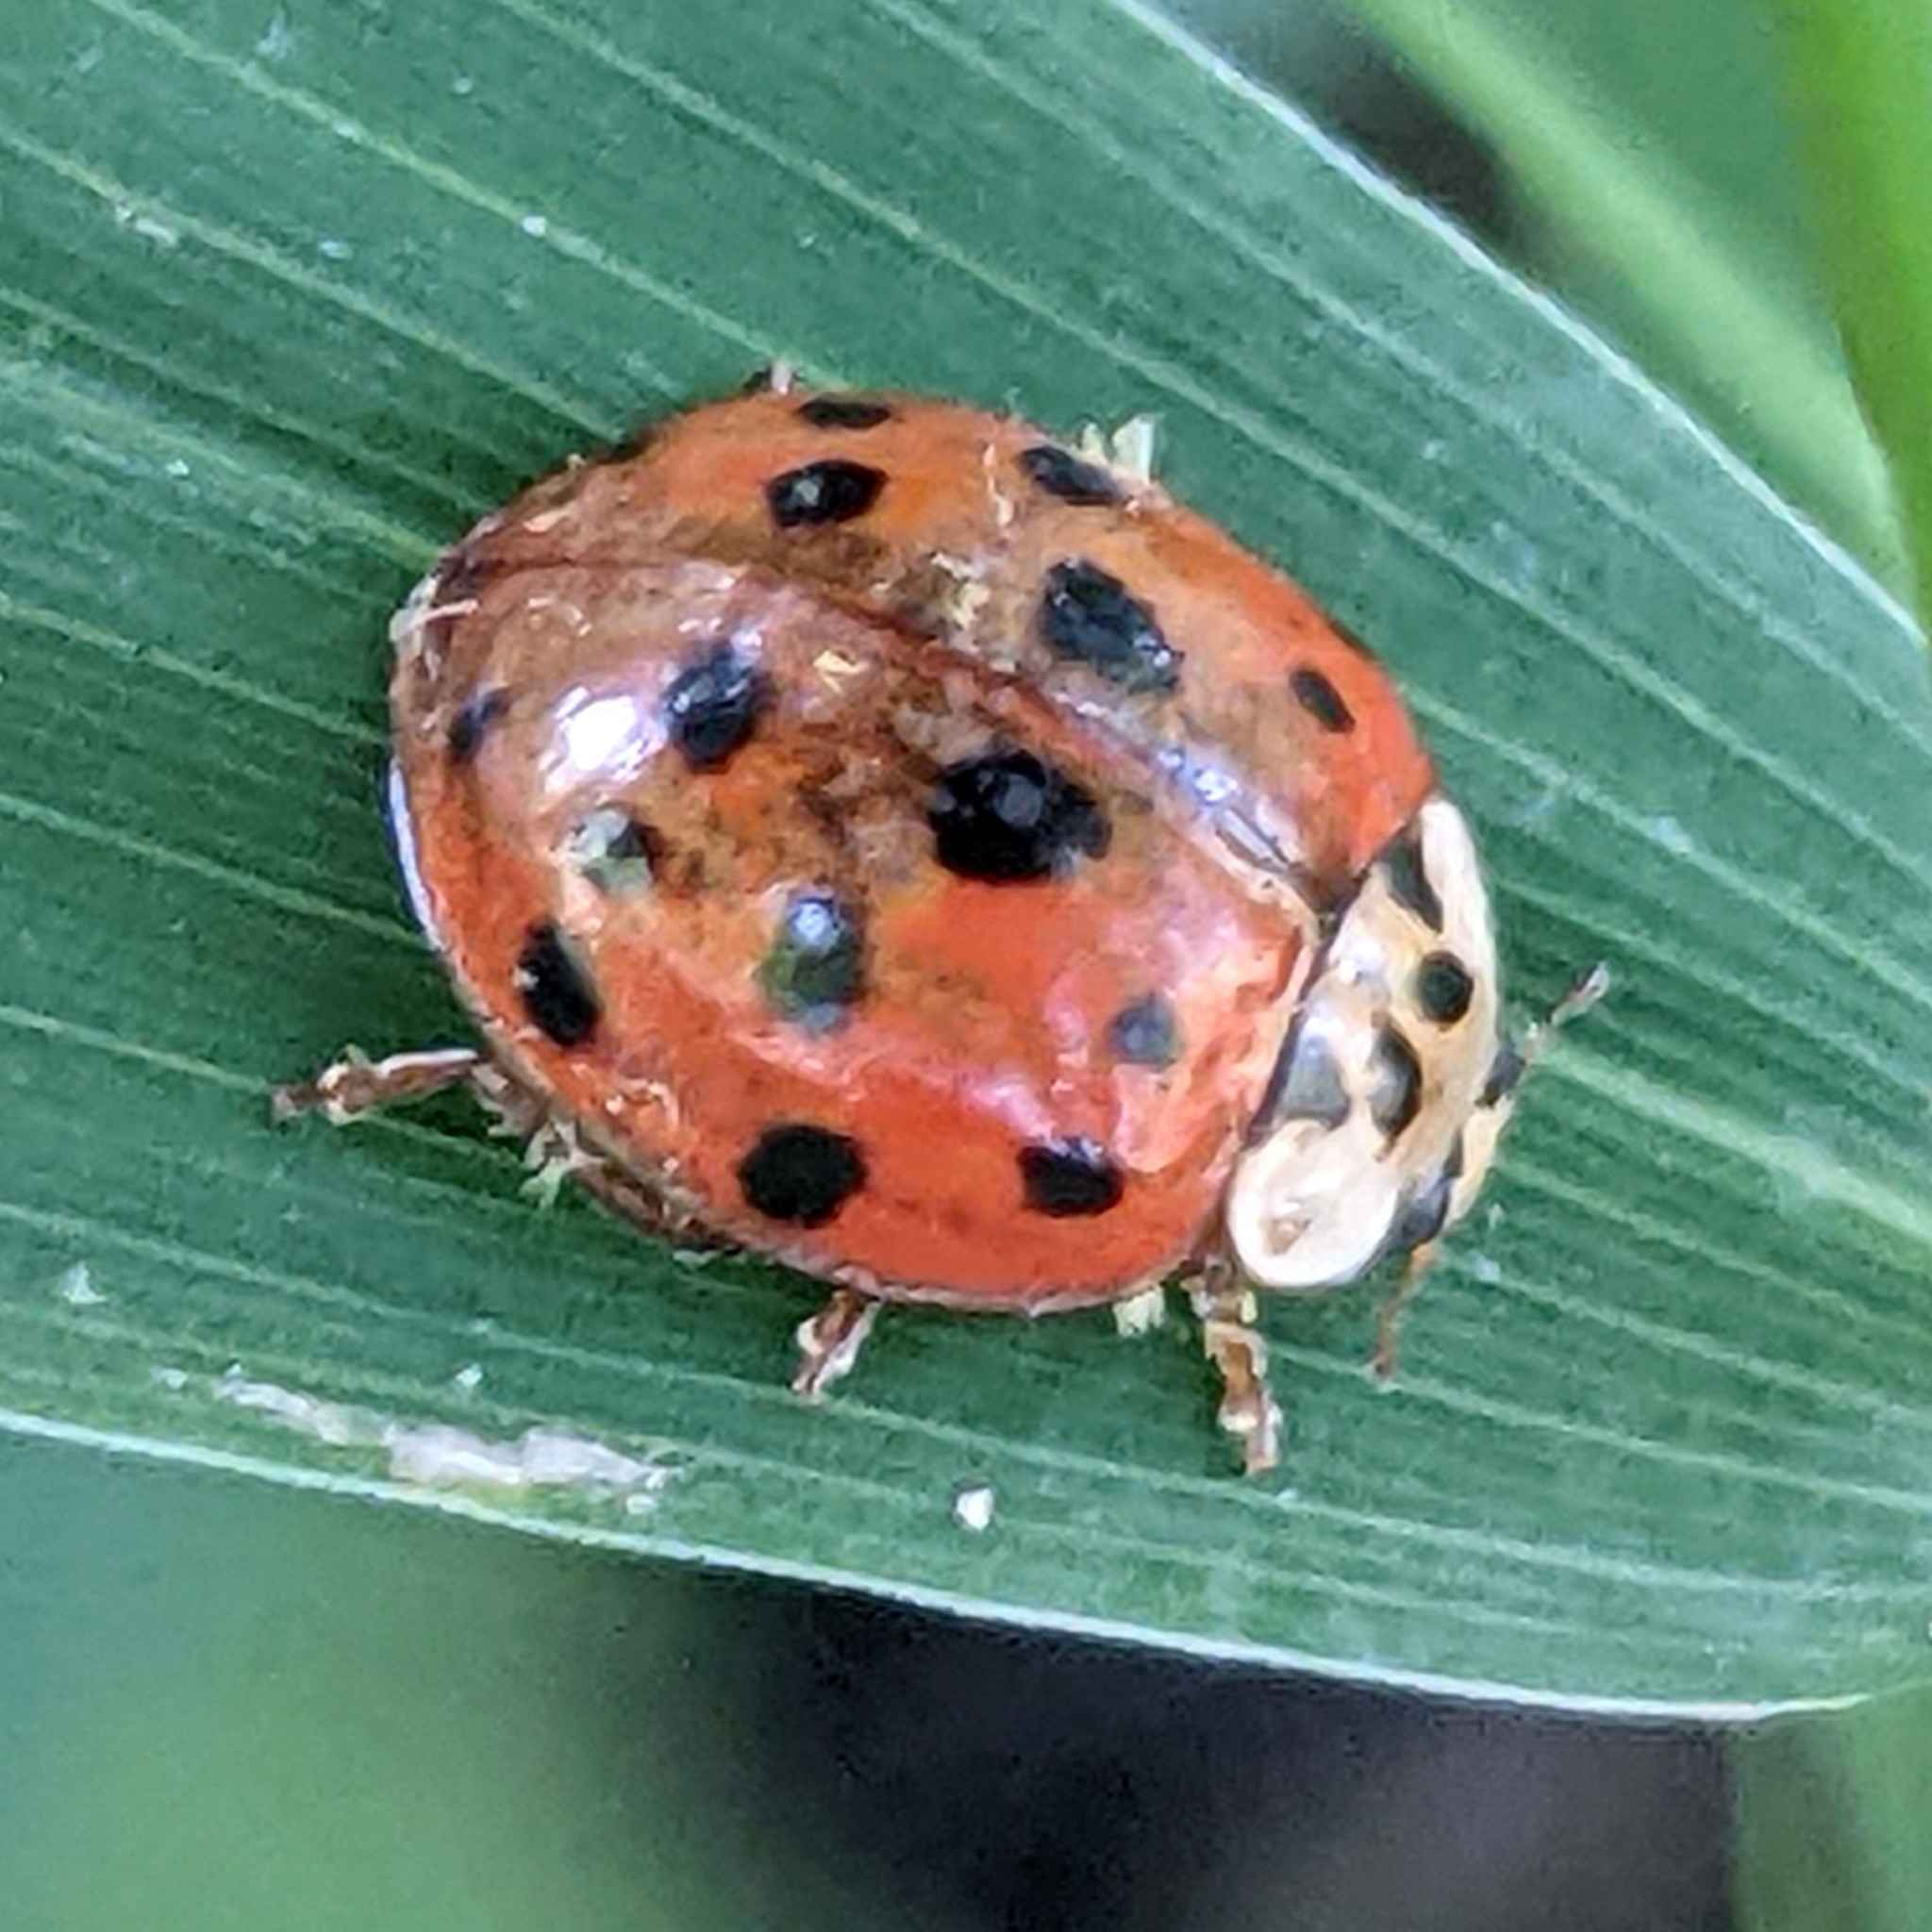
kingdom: Fungi
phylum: Ascomycota
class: Laboulbeniomycetes
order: Laboulbeniales
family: Laboulbeniaceae
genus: Hesperomyces
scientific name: Hesperomyces harmoniae
